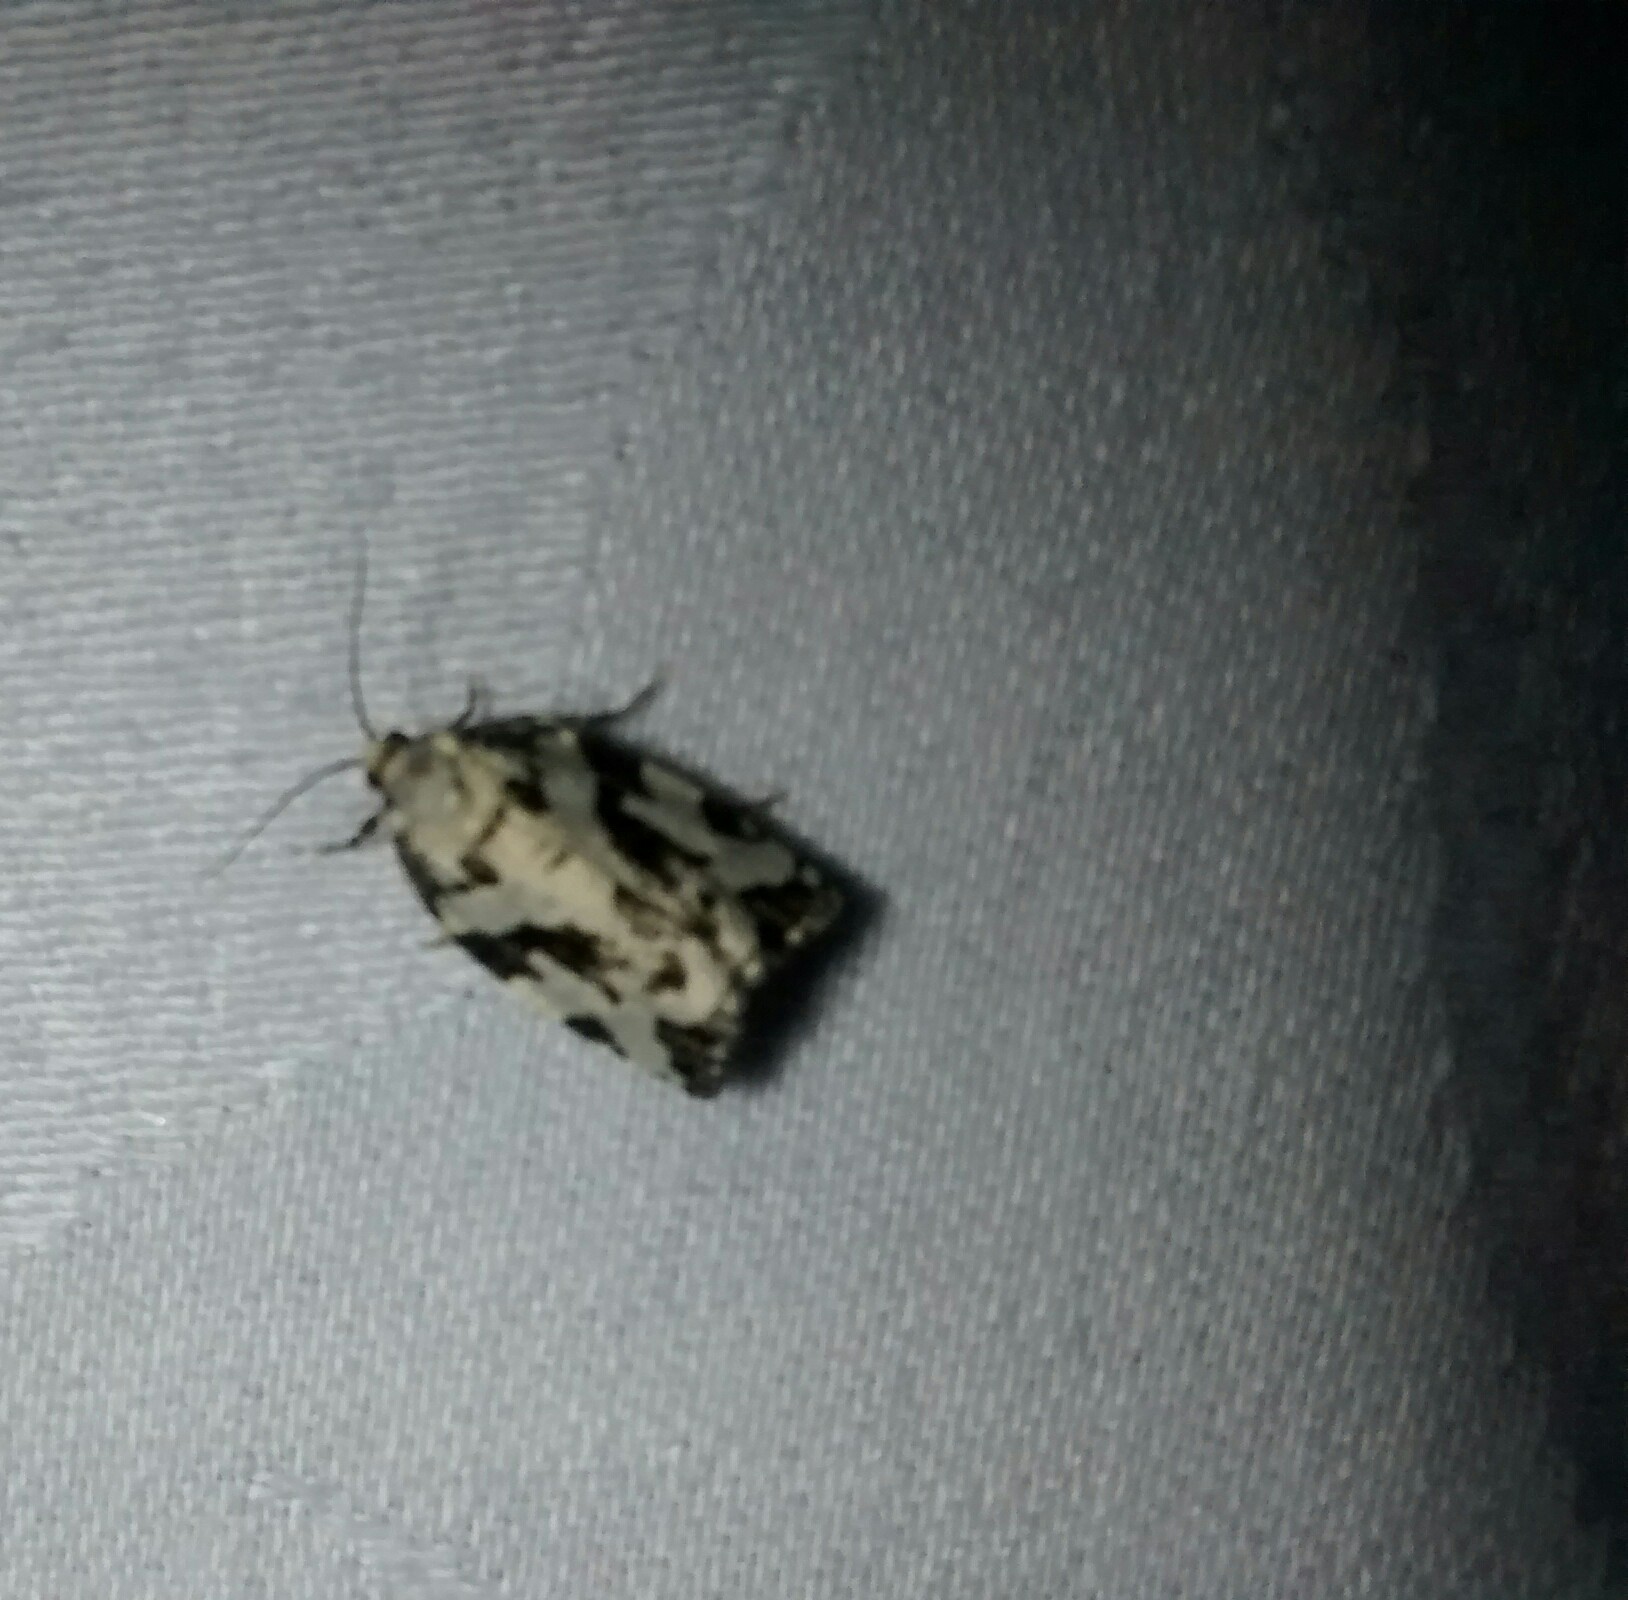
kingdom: Animalia
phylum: Arthropoda
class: Insecta
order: Lepidoptera
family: Tortricidae
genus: Archips
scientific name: Archips dissitana
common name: Boldly-marked archips moth
